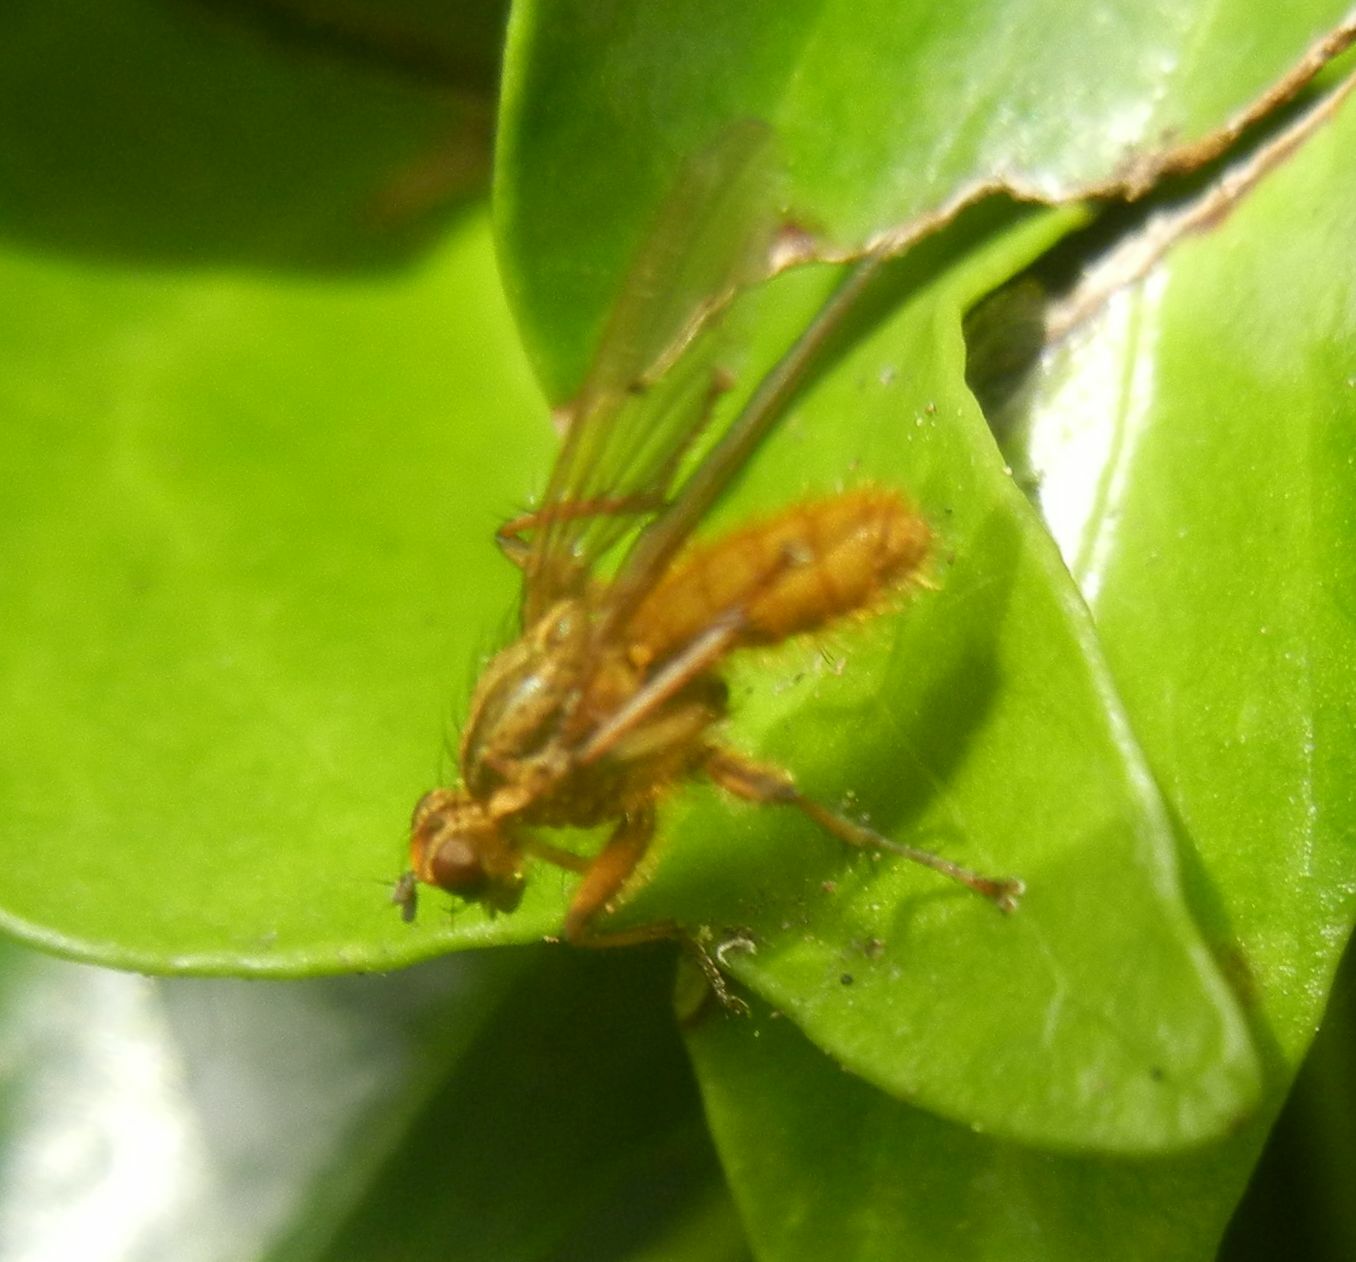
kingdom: Animalia
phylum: Arthropoda
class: Insecta
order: Diptera
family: Scathophagidae
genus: Scathophaga
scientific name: Scathophaga stercoraria
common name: Yellow dung fly
